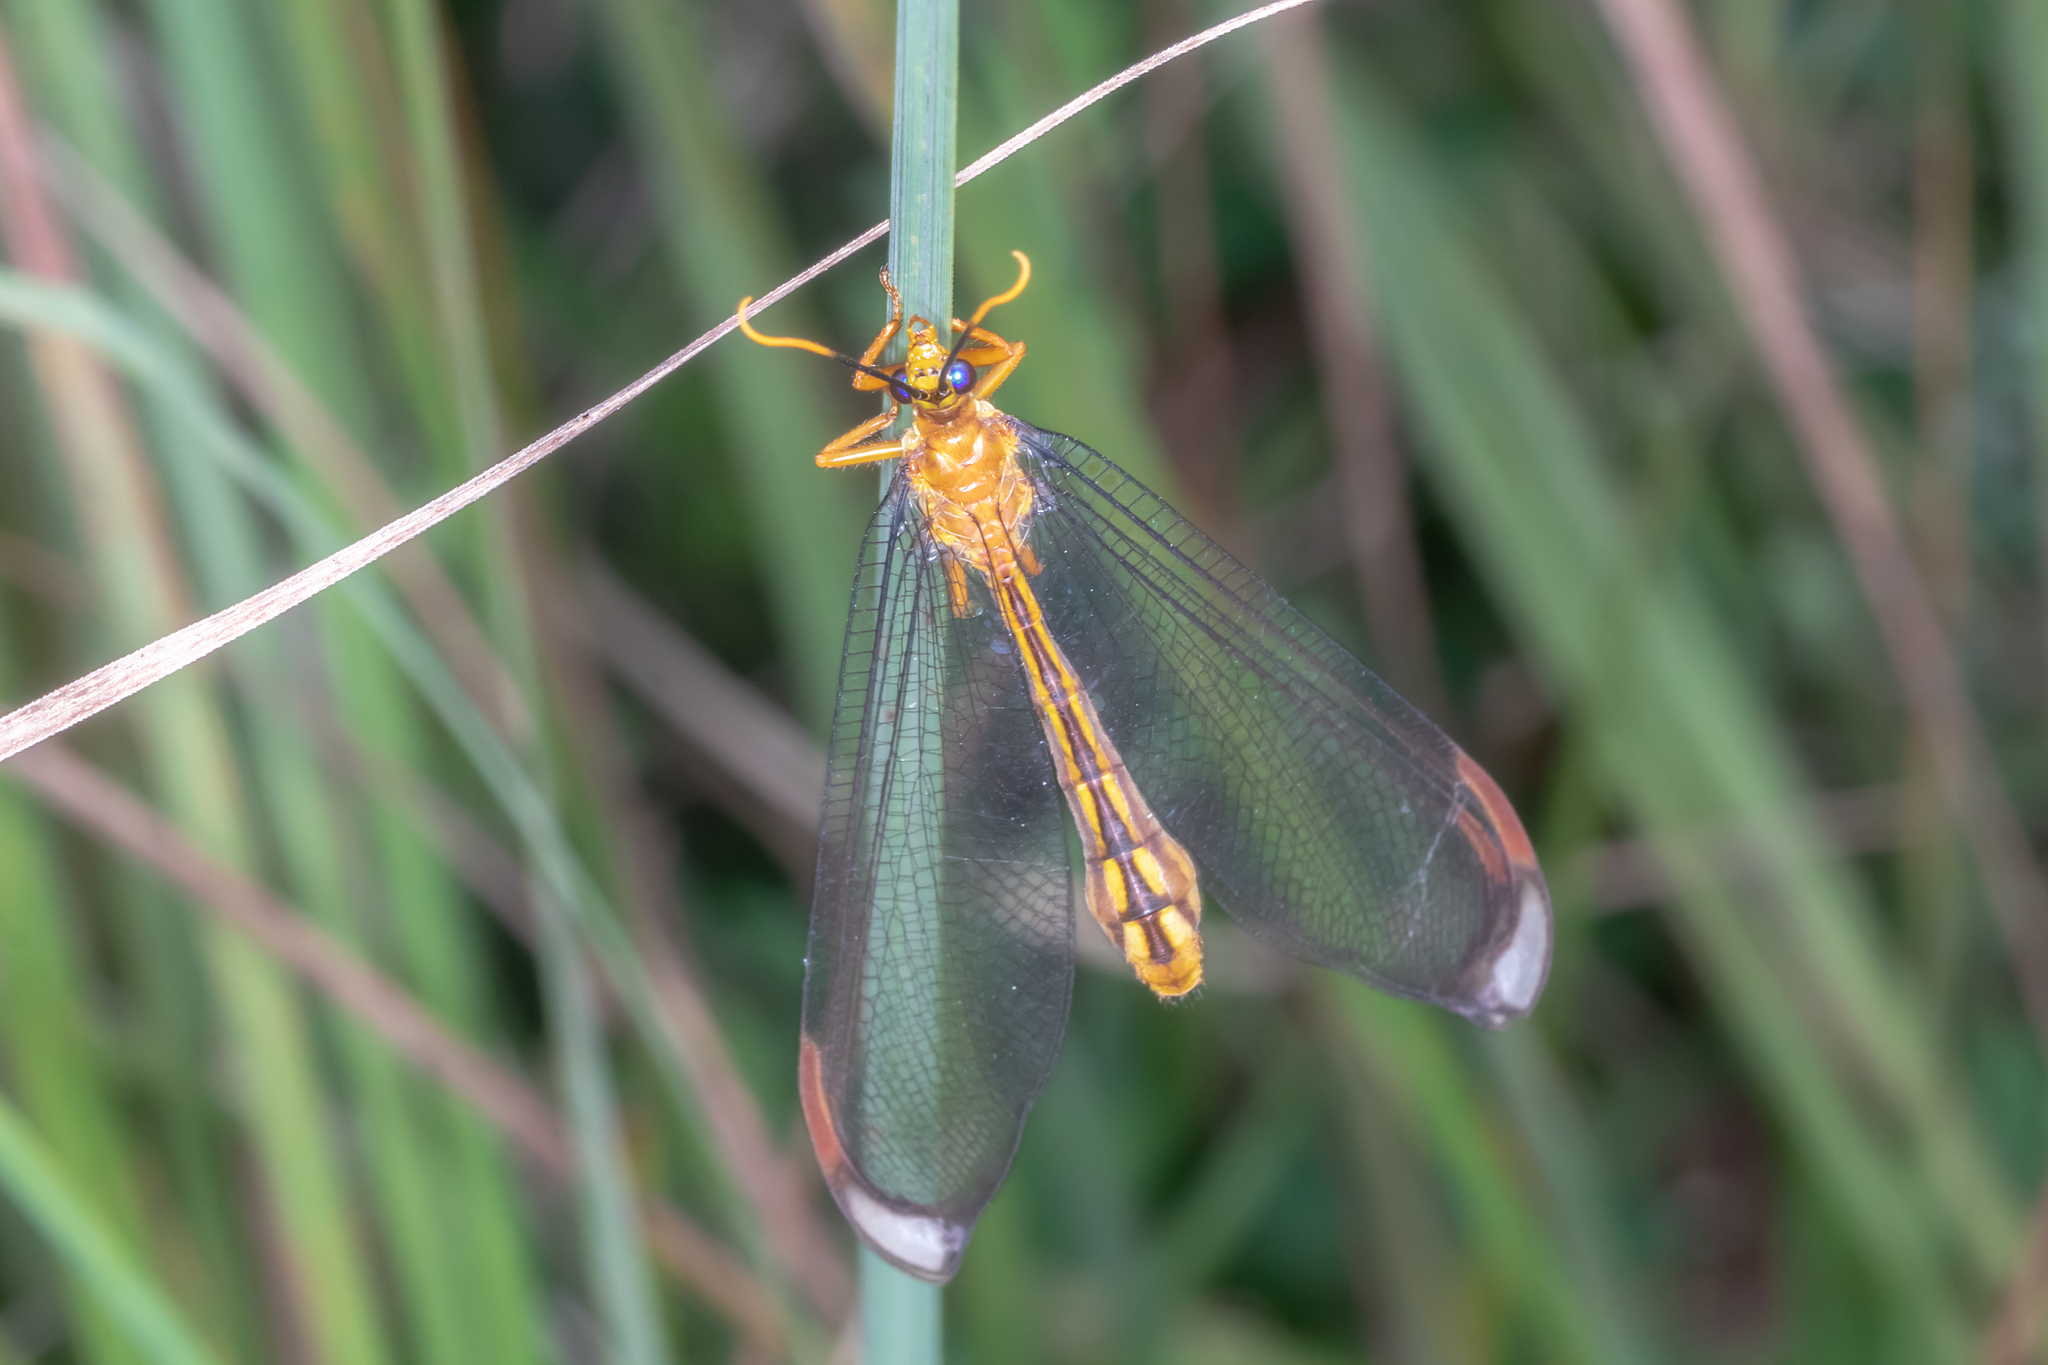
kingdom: Animalia
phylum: Arthropoda
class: Insecta
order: Neuroptera
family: Nymphidae
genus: Nymphes
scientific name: Nymphes myrmeleonoides
